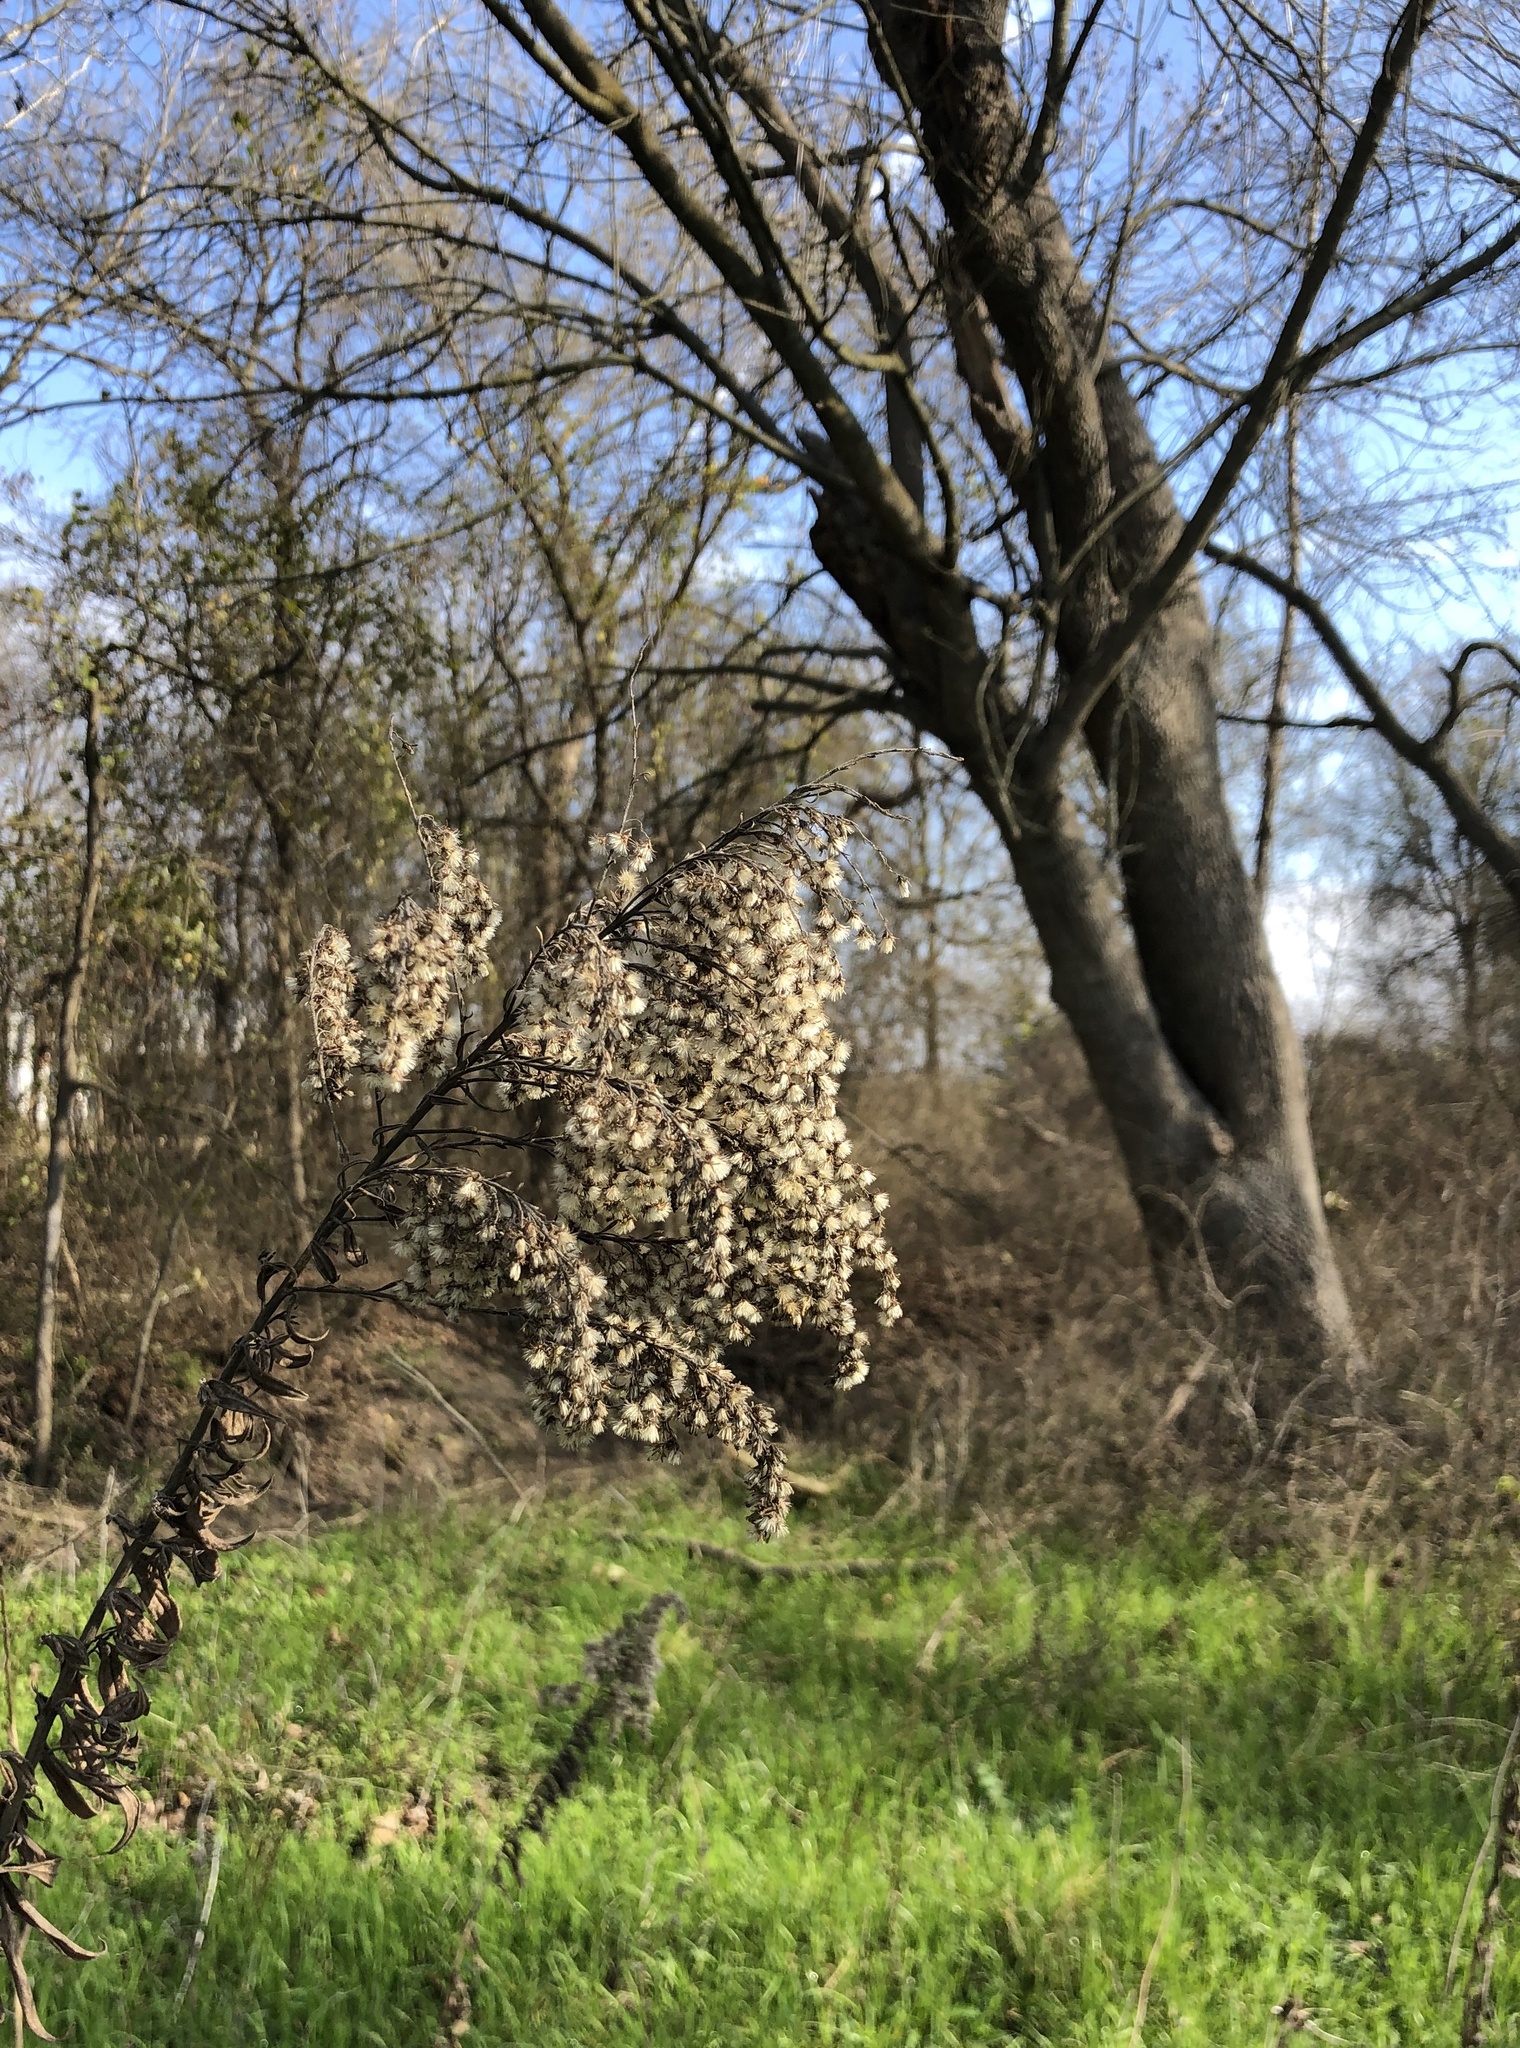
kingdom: Plantae
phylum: Tracheophyta
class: Magnoliopsida
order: Asterales
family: Asteraceae
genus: Eupatorium
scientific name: Eupatorium serotinum
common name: Late boneset
